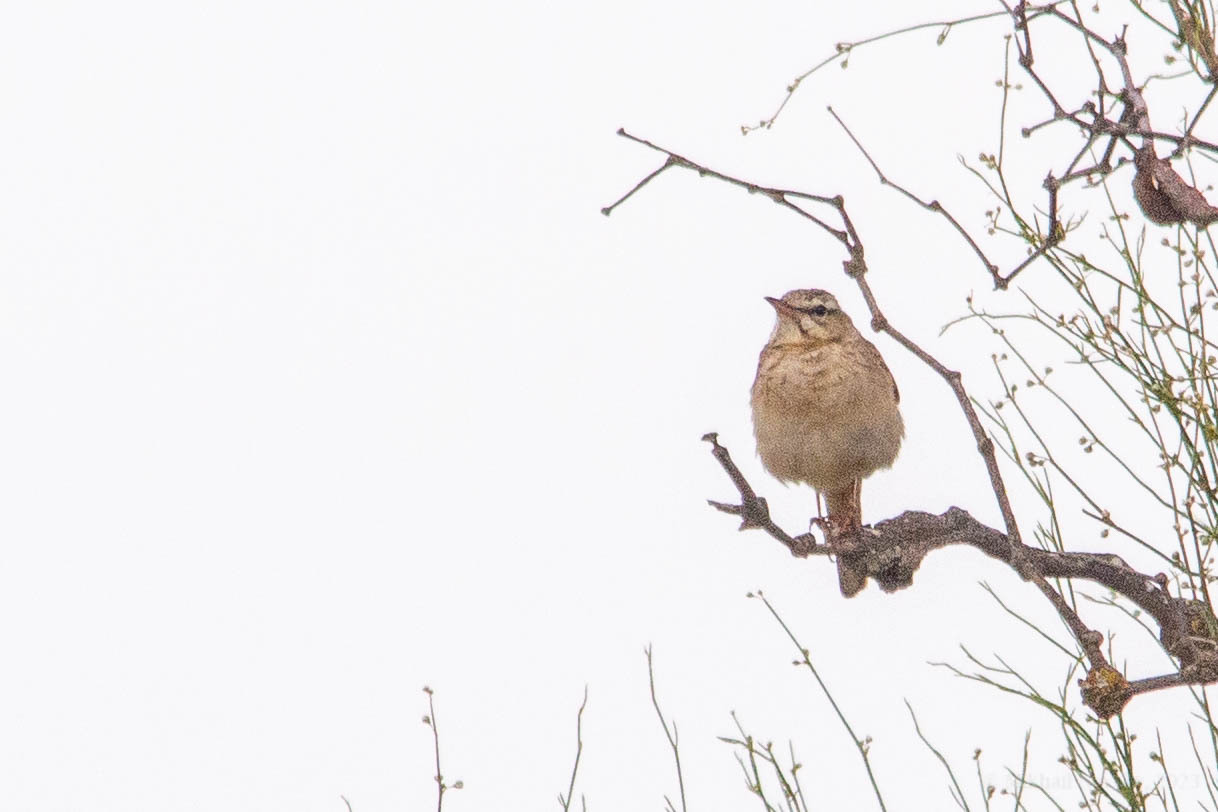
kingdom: Animalia
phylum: Chordata
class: Aves
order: Passeriformes
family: Motacillidae
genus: Anthus
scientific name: Anthus campestris
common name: Tawny pipit
